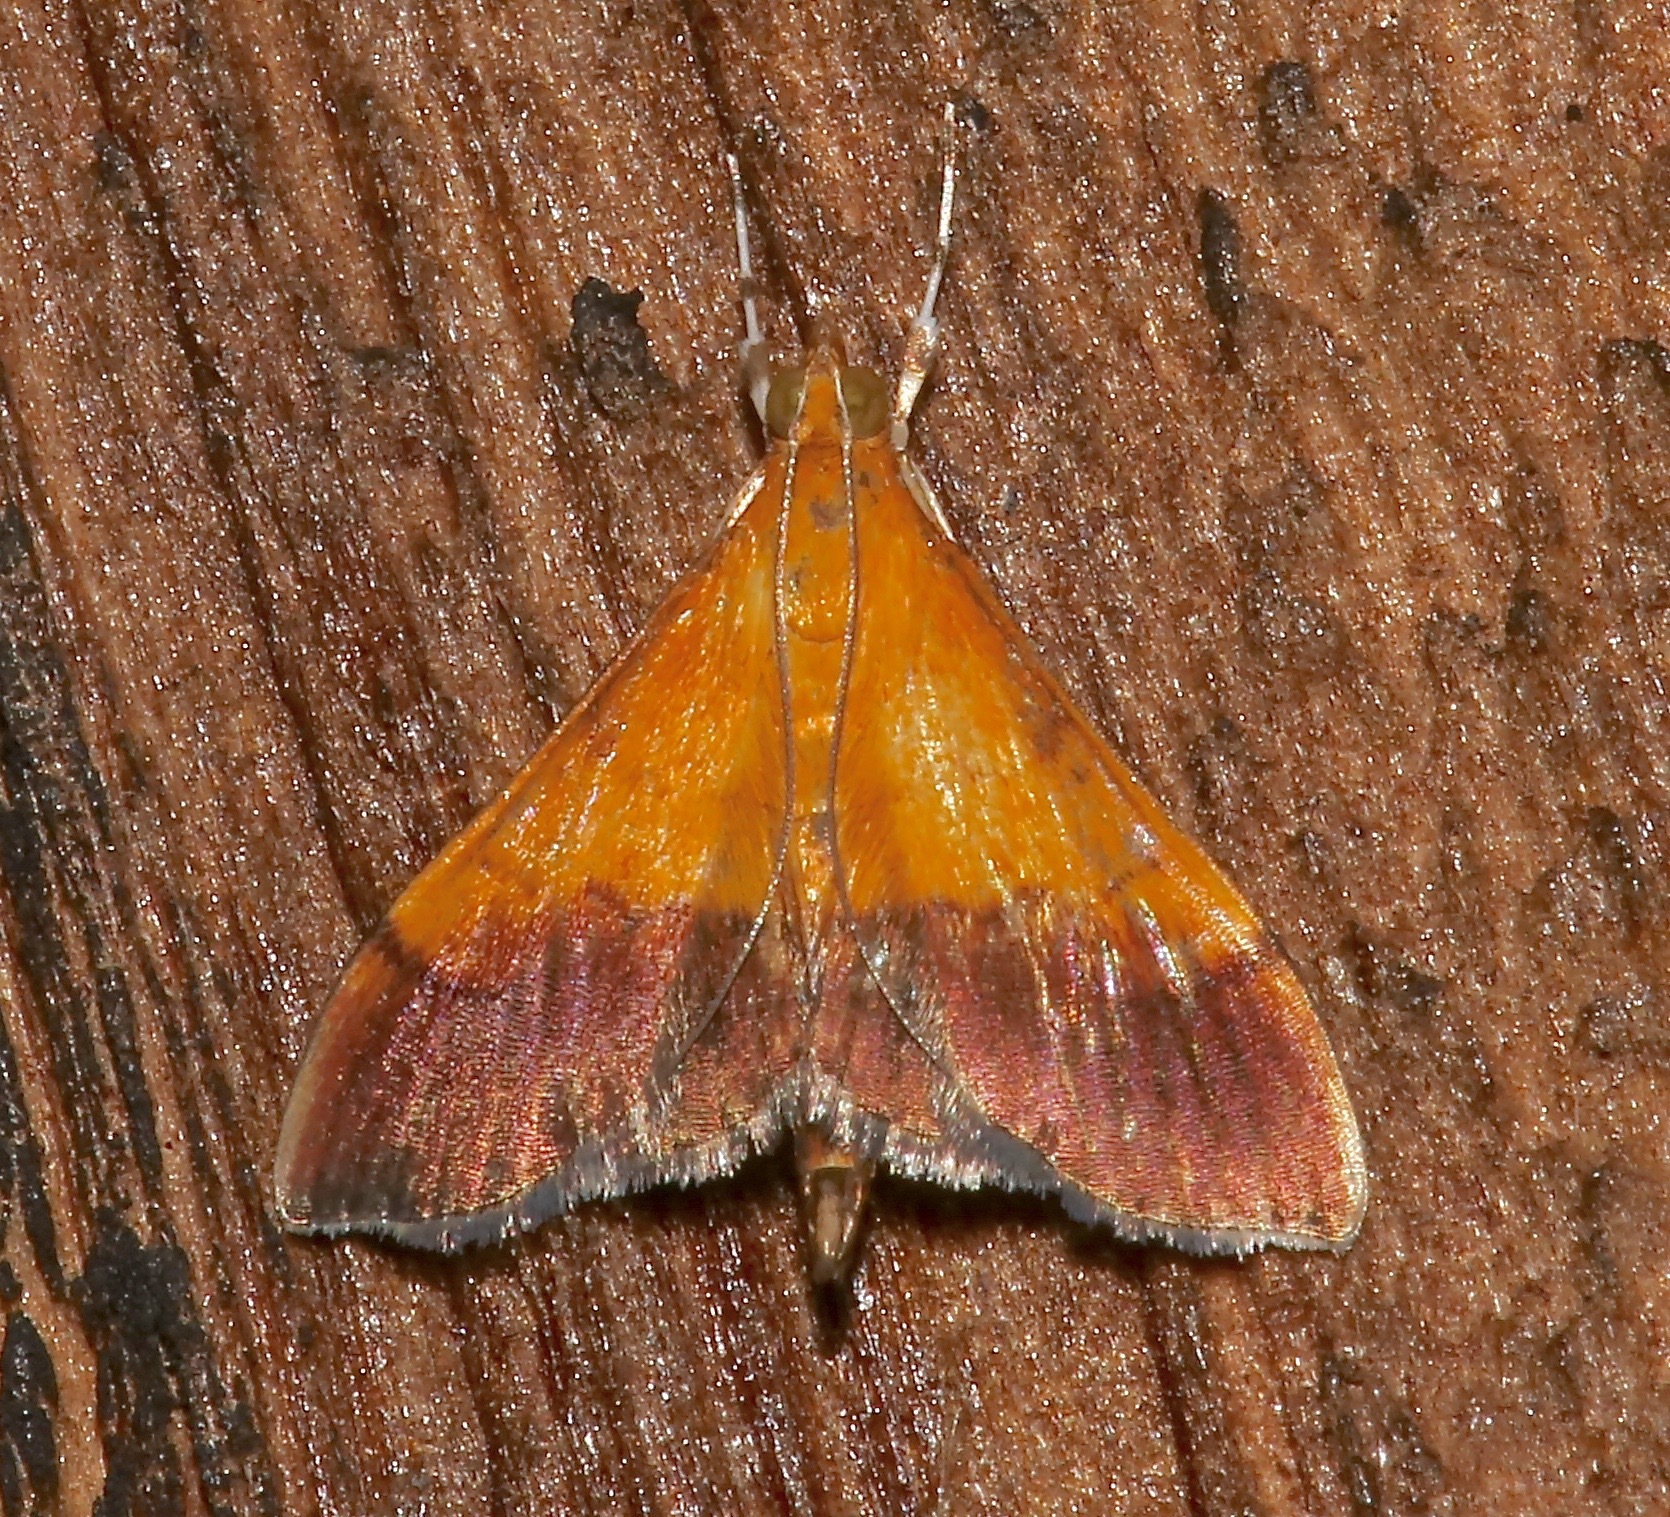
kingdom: Animalia
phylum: Arthropoda
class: Insecta
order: Lepidoptera
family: Crambidae
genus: Pyrausta
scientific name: Pyrausta bicoloralis
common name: Bicolored pyrausta moth
